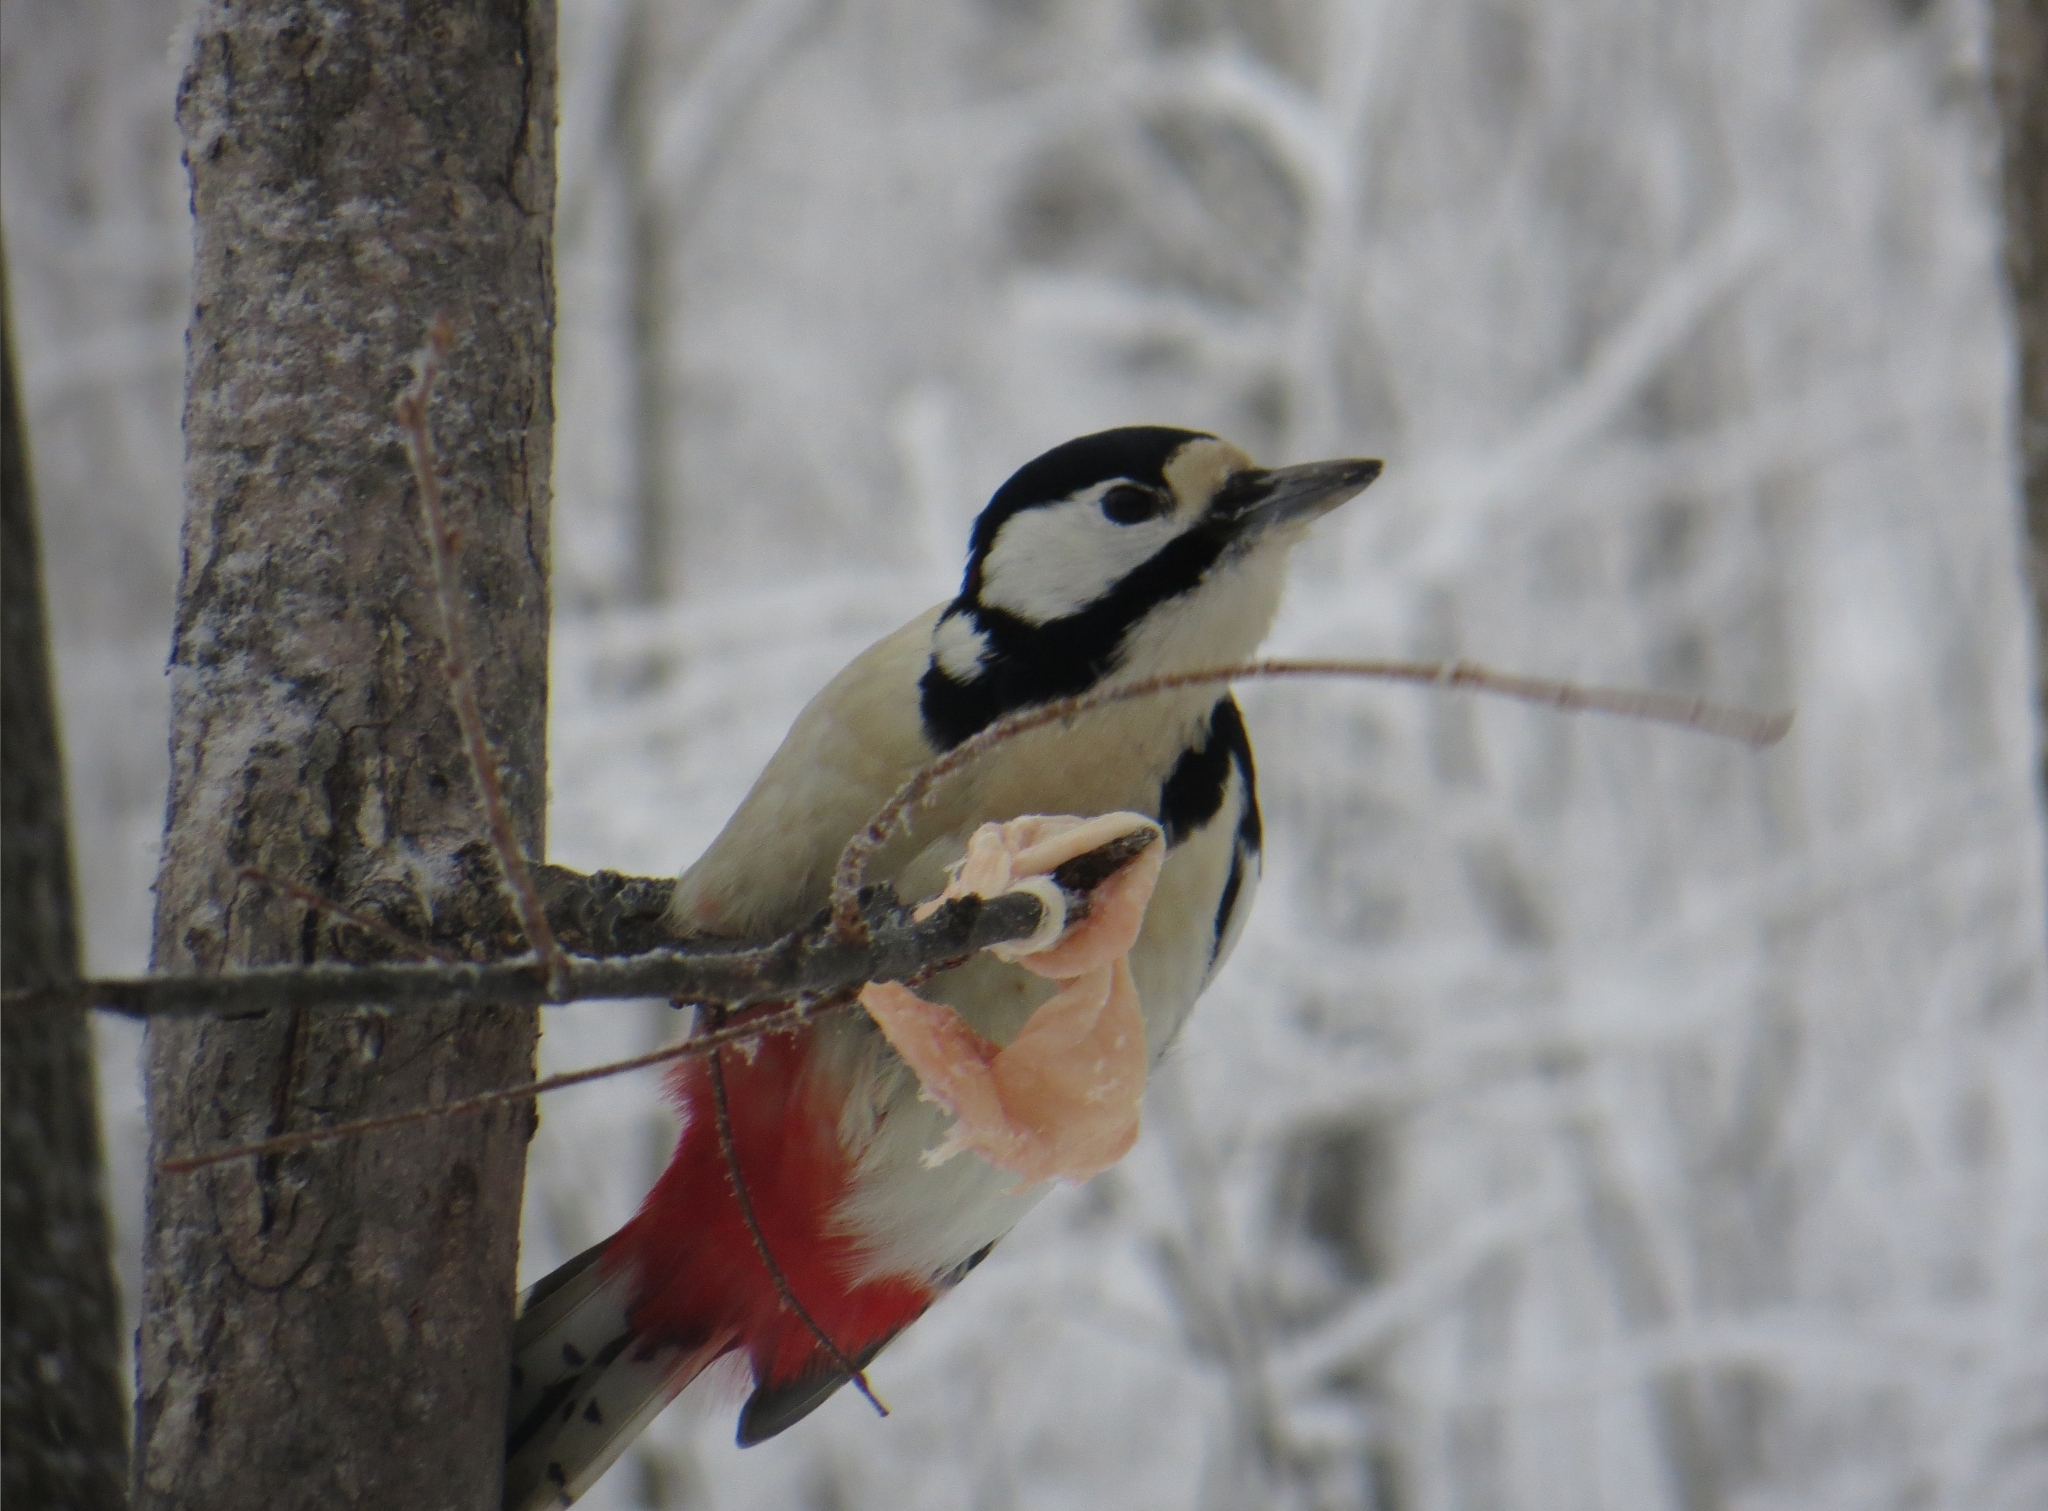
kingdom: Animalia
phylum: Chordata
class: Aves
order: Piciformes
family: Picidae
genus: Dendrocopos
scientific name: Dendrocopos major
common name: Great spotted woodpecker
